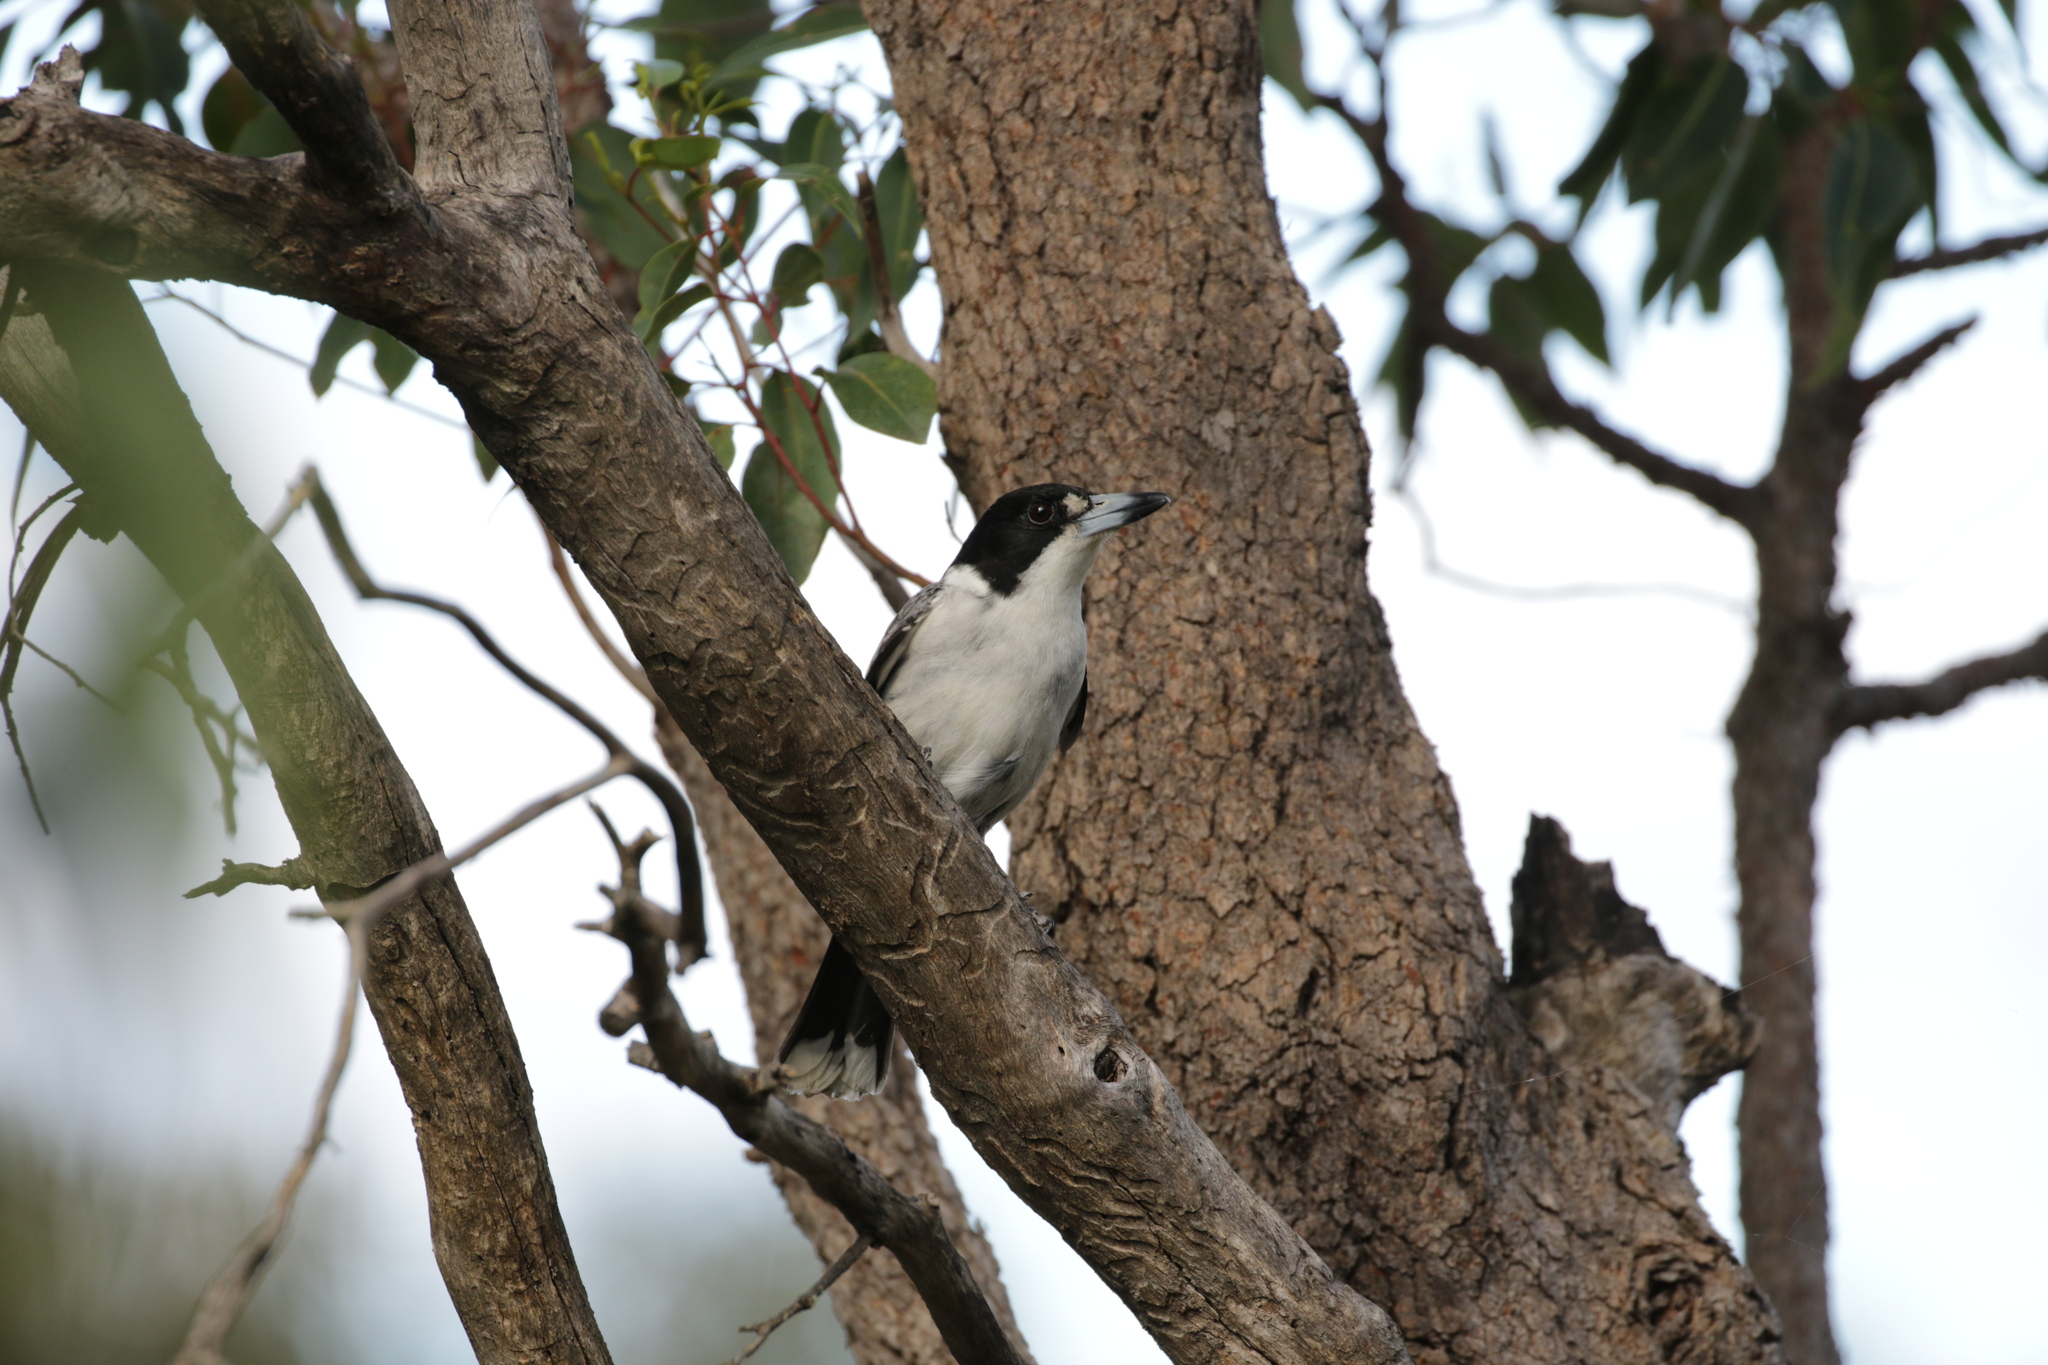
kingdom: Animalia
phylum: Chordata
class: Aves
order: Passeriformes
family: Cracticidae
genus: Cracticus
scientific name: Cracticus torquatus
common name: Grey butcherbird
